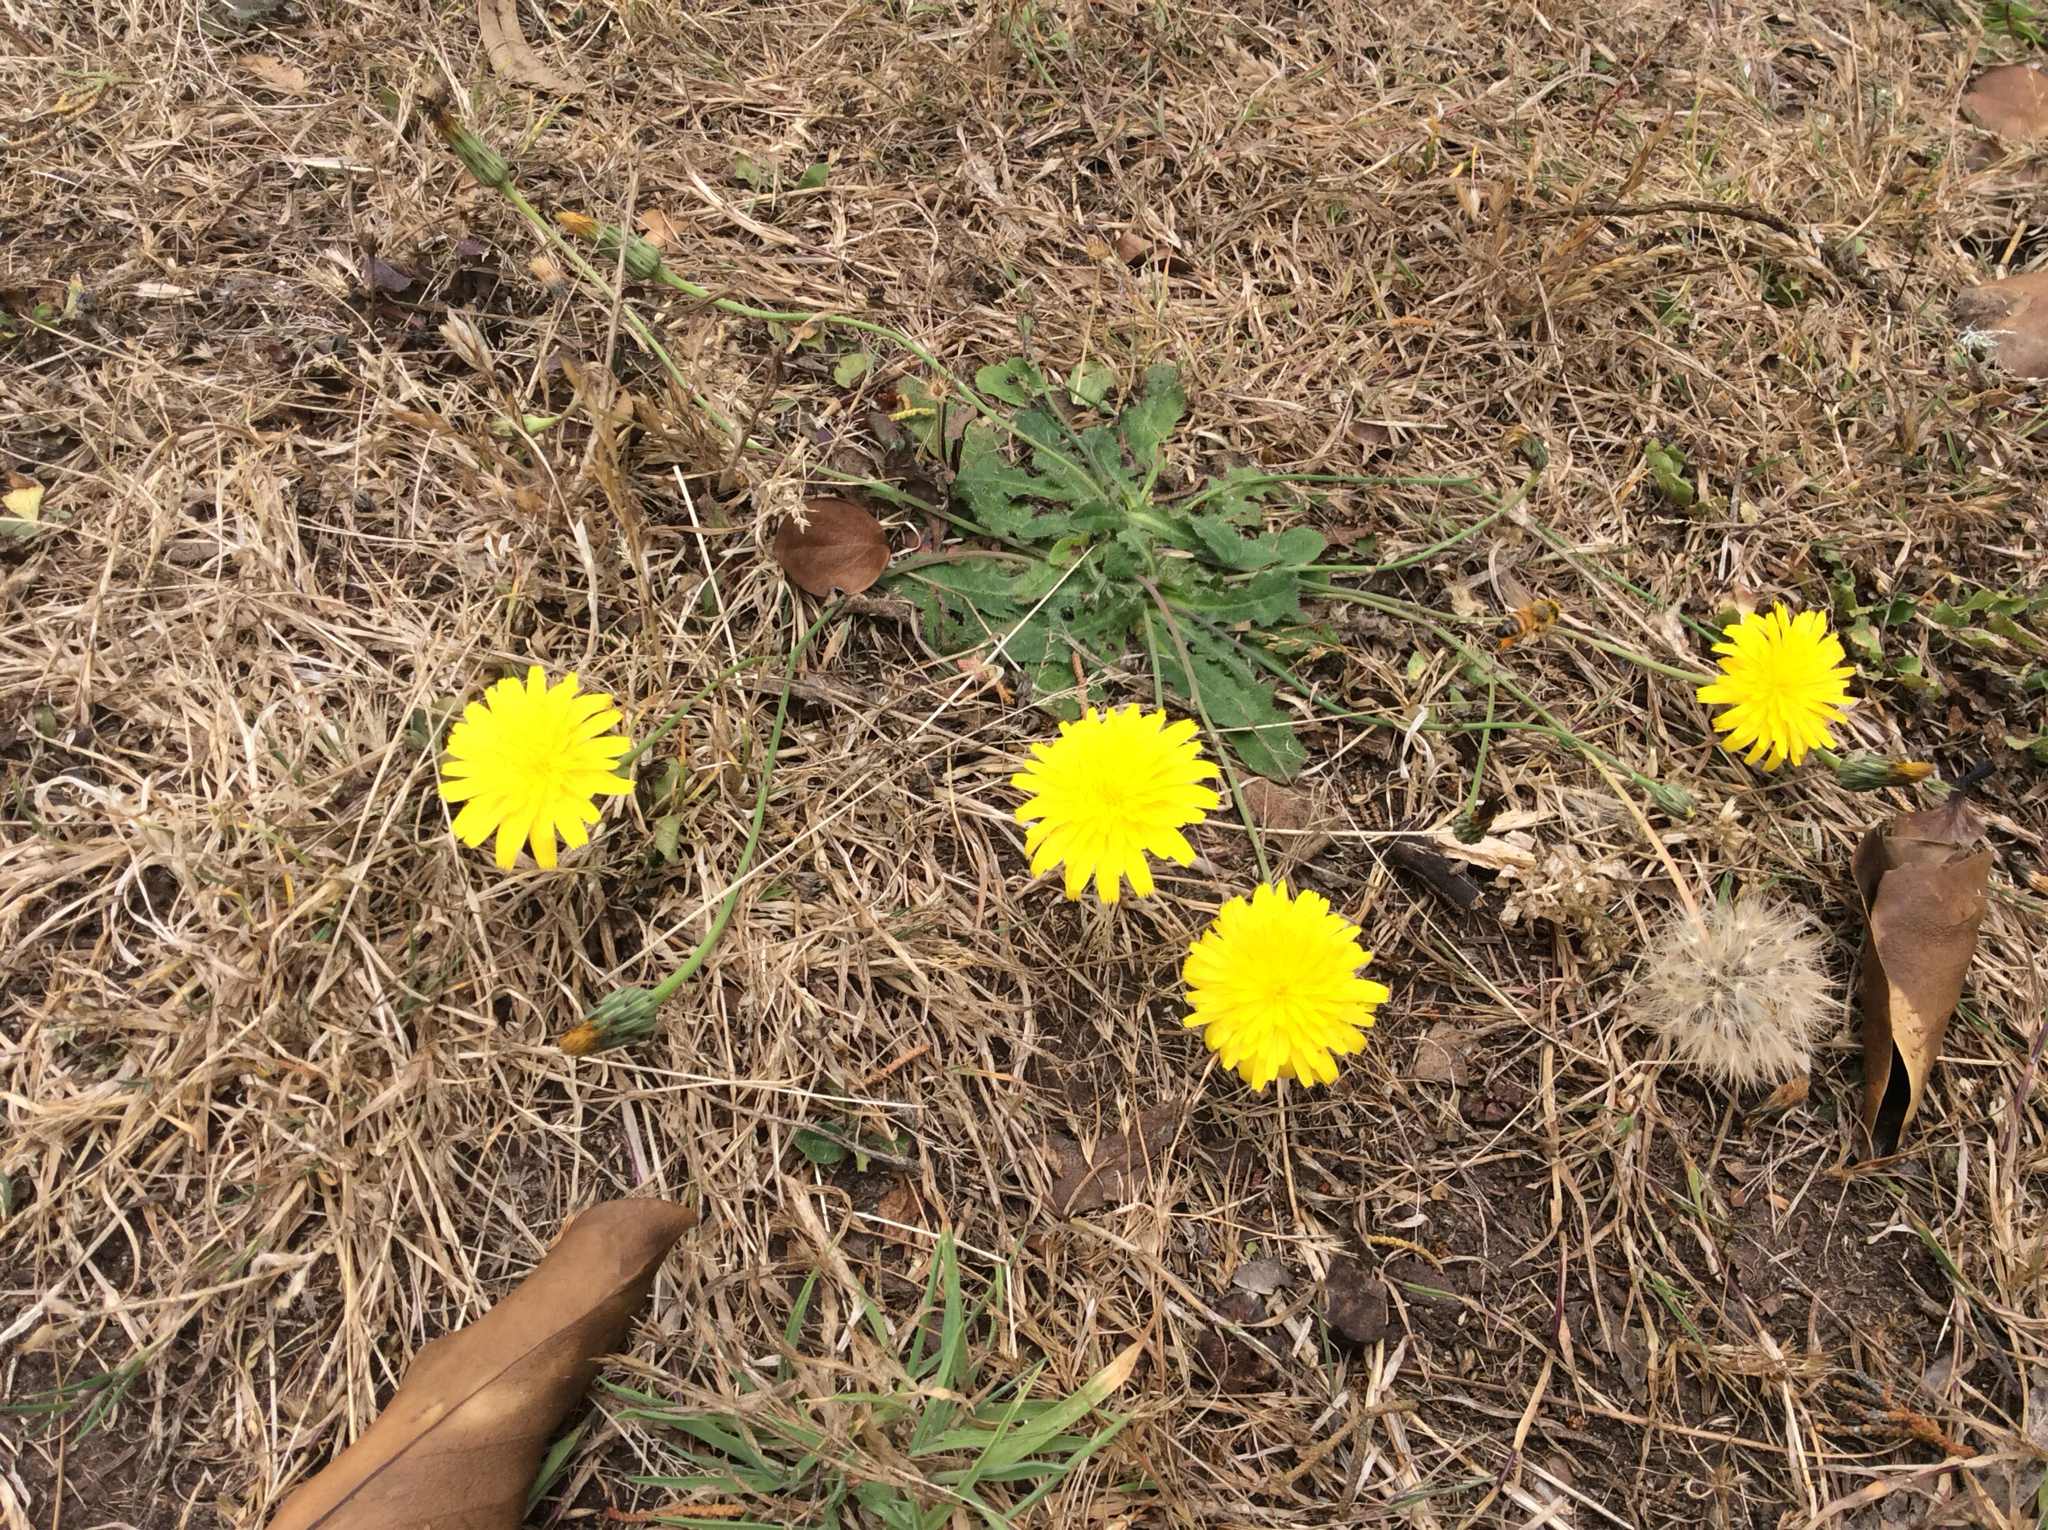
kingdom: Animalia
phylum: Arthropoda
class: Insecta
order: Hymenoptera
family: Apidae
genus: Apis
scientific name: Apis mellifera
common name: Honey bee
